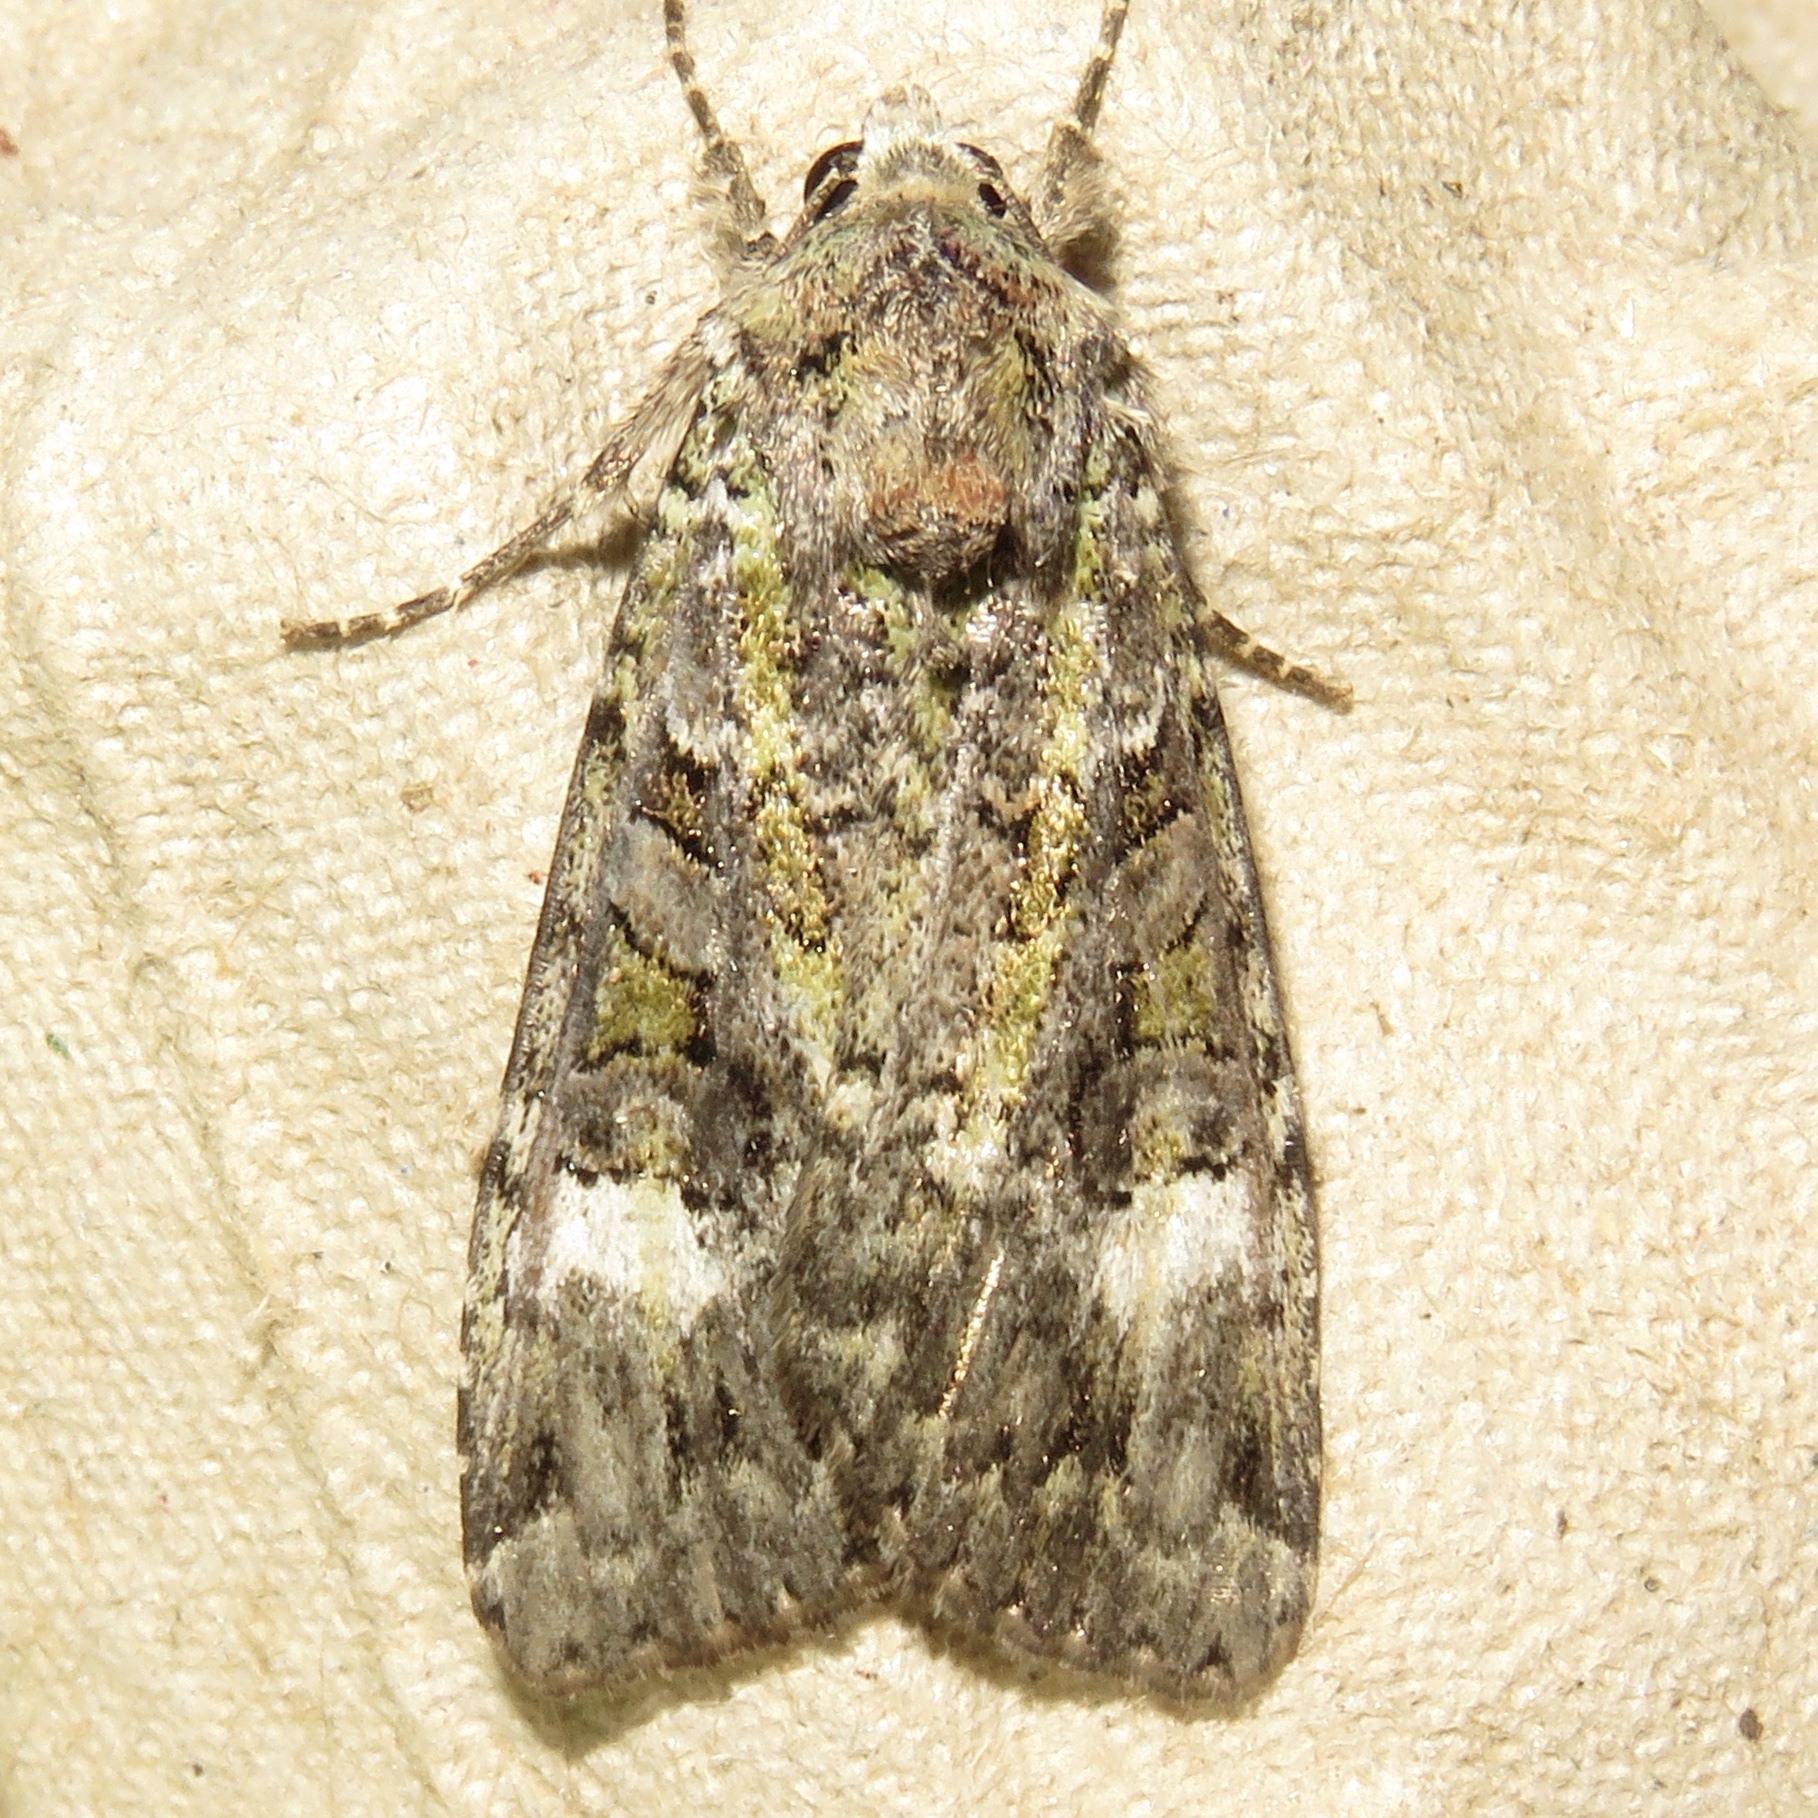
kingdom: Animalia
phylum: Arthropoda
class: Insecta
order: Lepidoptera
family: Noctuidae
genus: Anaplectoides
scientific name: Anaplectoides prasina
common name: Green arches
